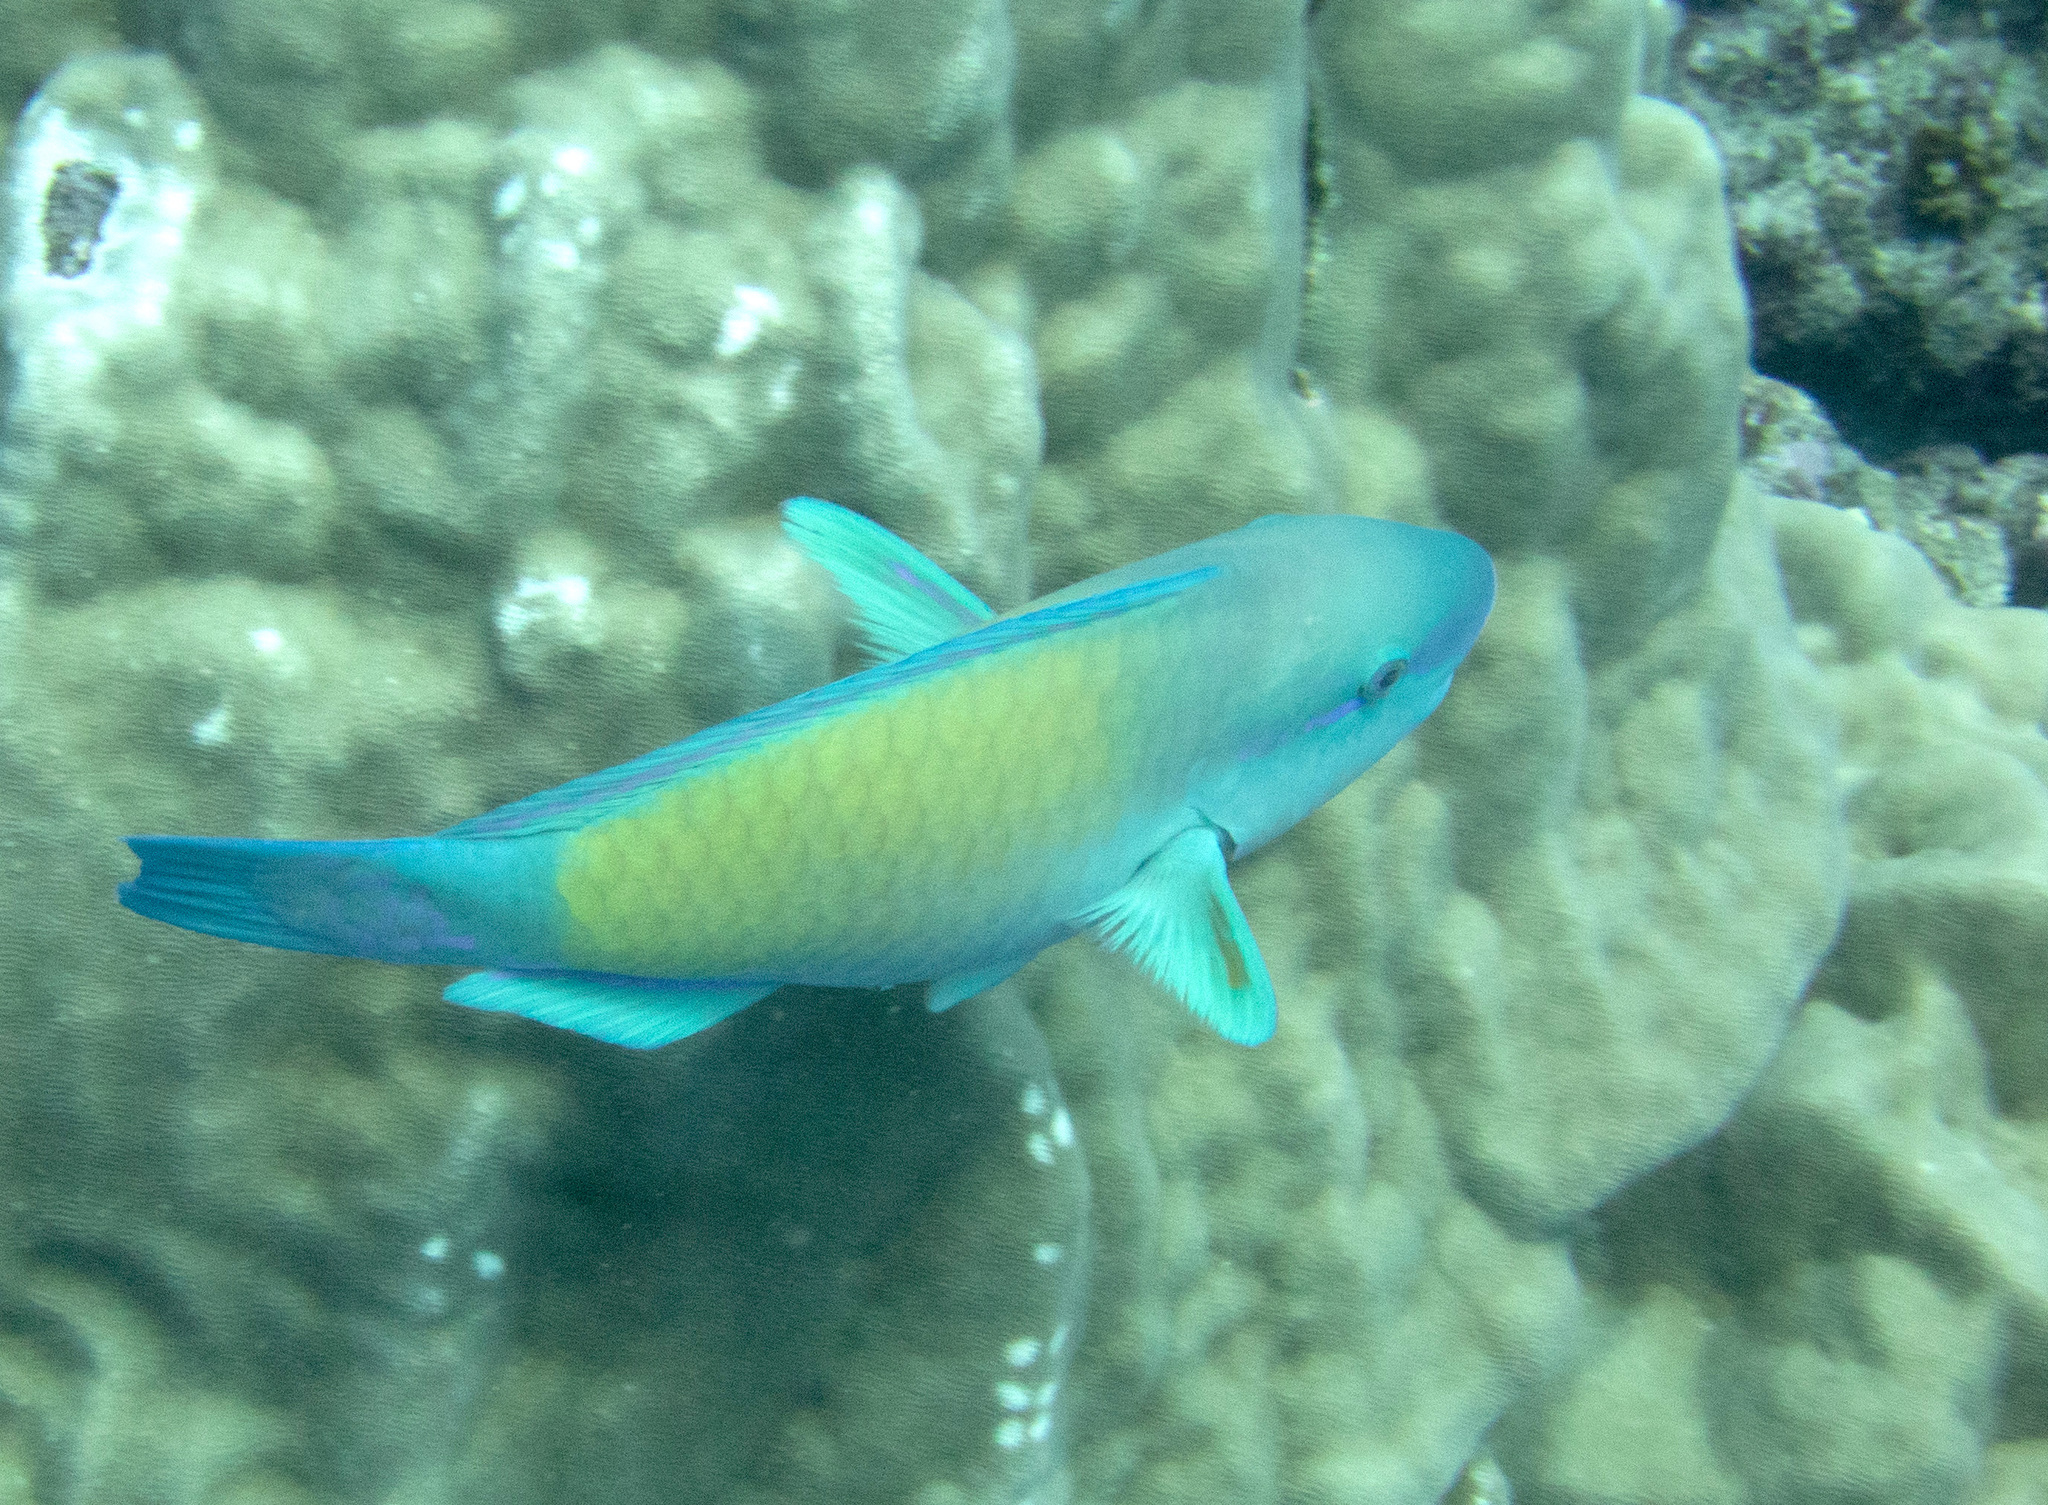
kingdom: Animalia
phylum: Chordata
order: Perciformes
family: Scaridae
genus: Chlorurus
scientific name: Chlorurus spilurus
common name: Bullethead parrotfish
